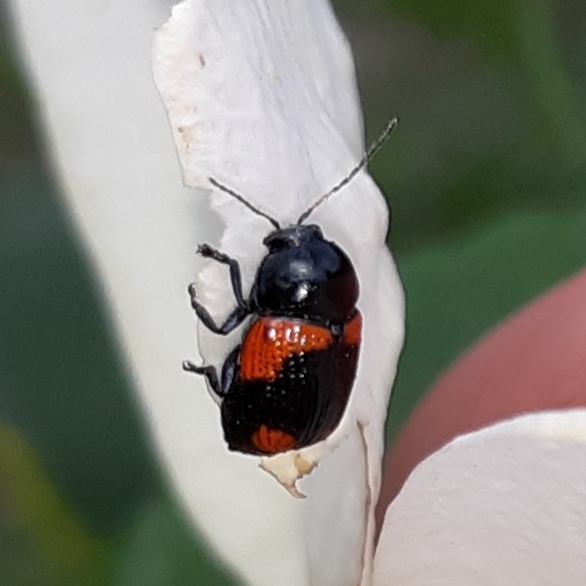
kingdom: Animalia
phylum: Arthropoda
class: Insecta
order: Coleoptera
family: Chrysomelidae
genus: Cryptocephalus
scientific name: Cryptocephalus notatus
